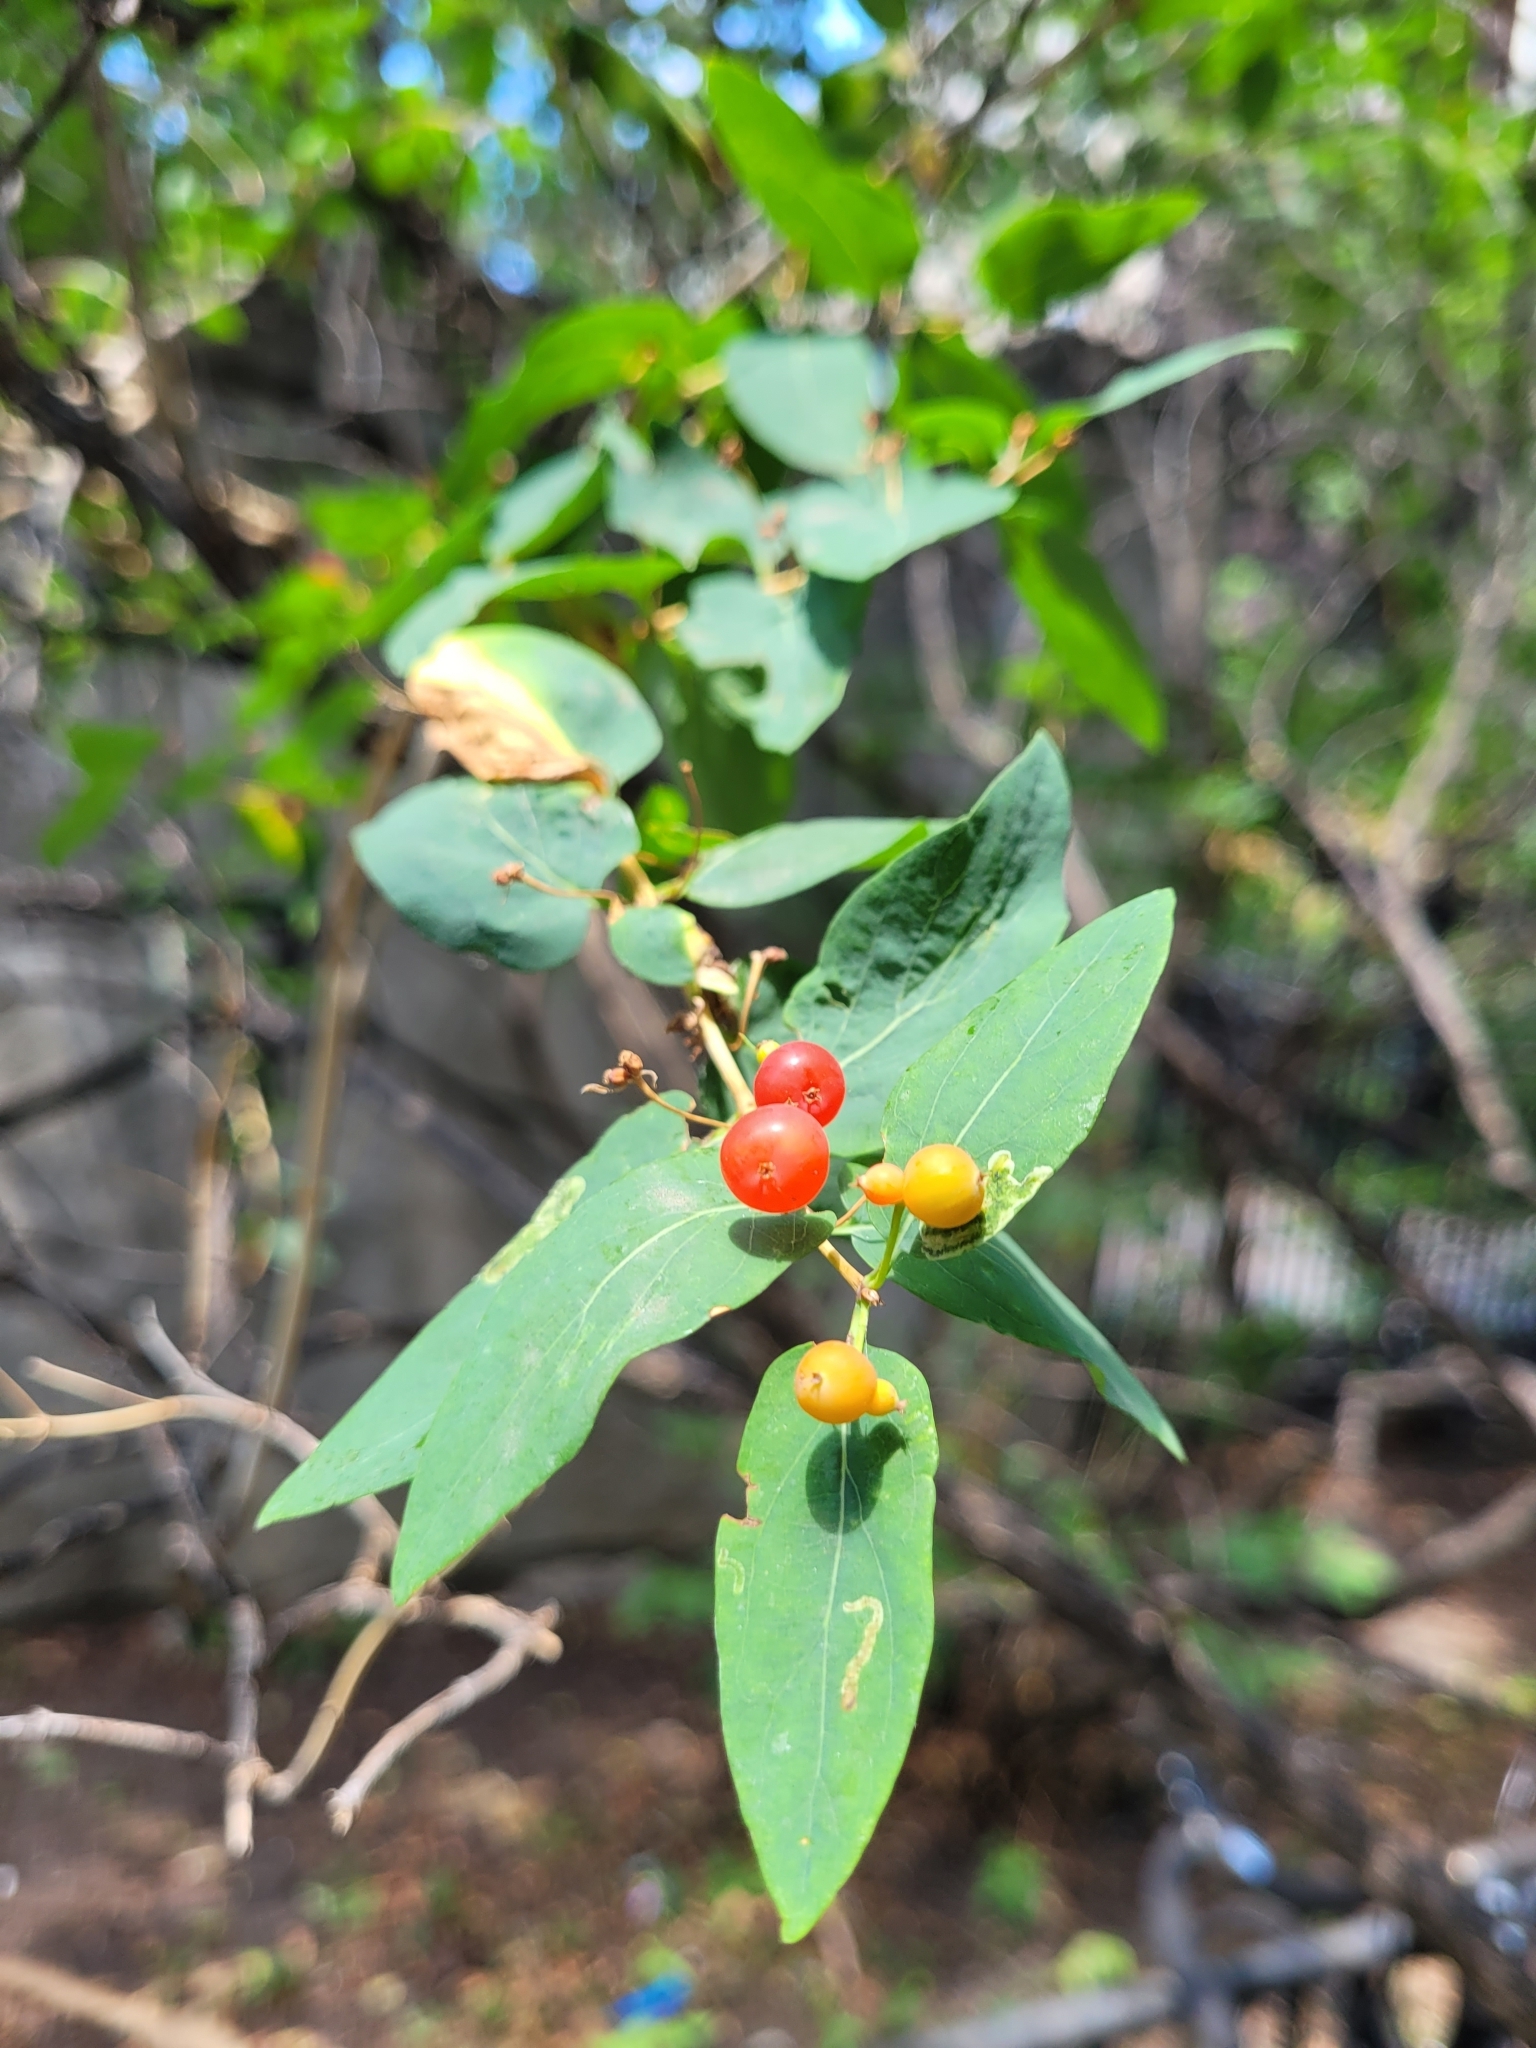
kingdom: Plantae
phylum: Tracheophyta
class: Magnoliopsida
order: Dipsacales
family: Caprifoliaceae
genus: Lonicera
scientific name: Lonicera tatarica
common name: Tatarian honeysuckle
